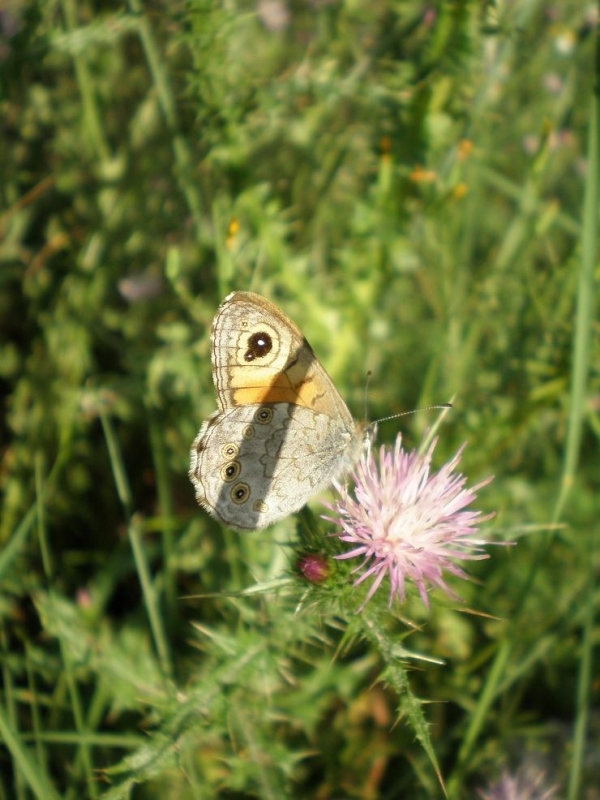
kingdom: Animalia
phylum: Arthropoda
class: Insecta
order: Lepidoptera
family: Nymphalidae
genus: Pararge
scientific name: Pararge Lasiommata maera
